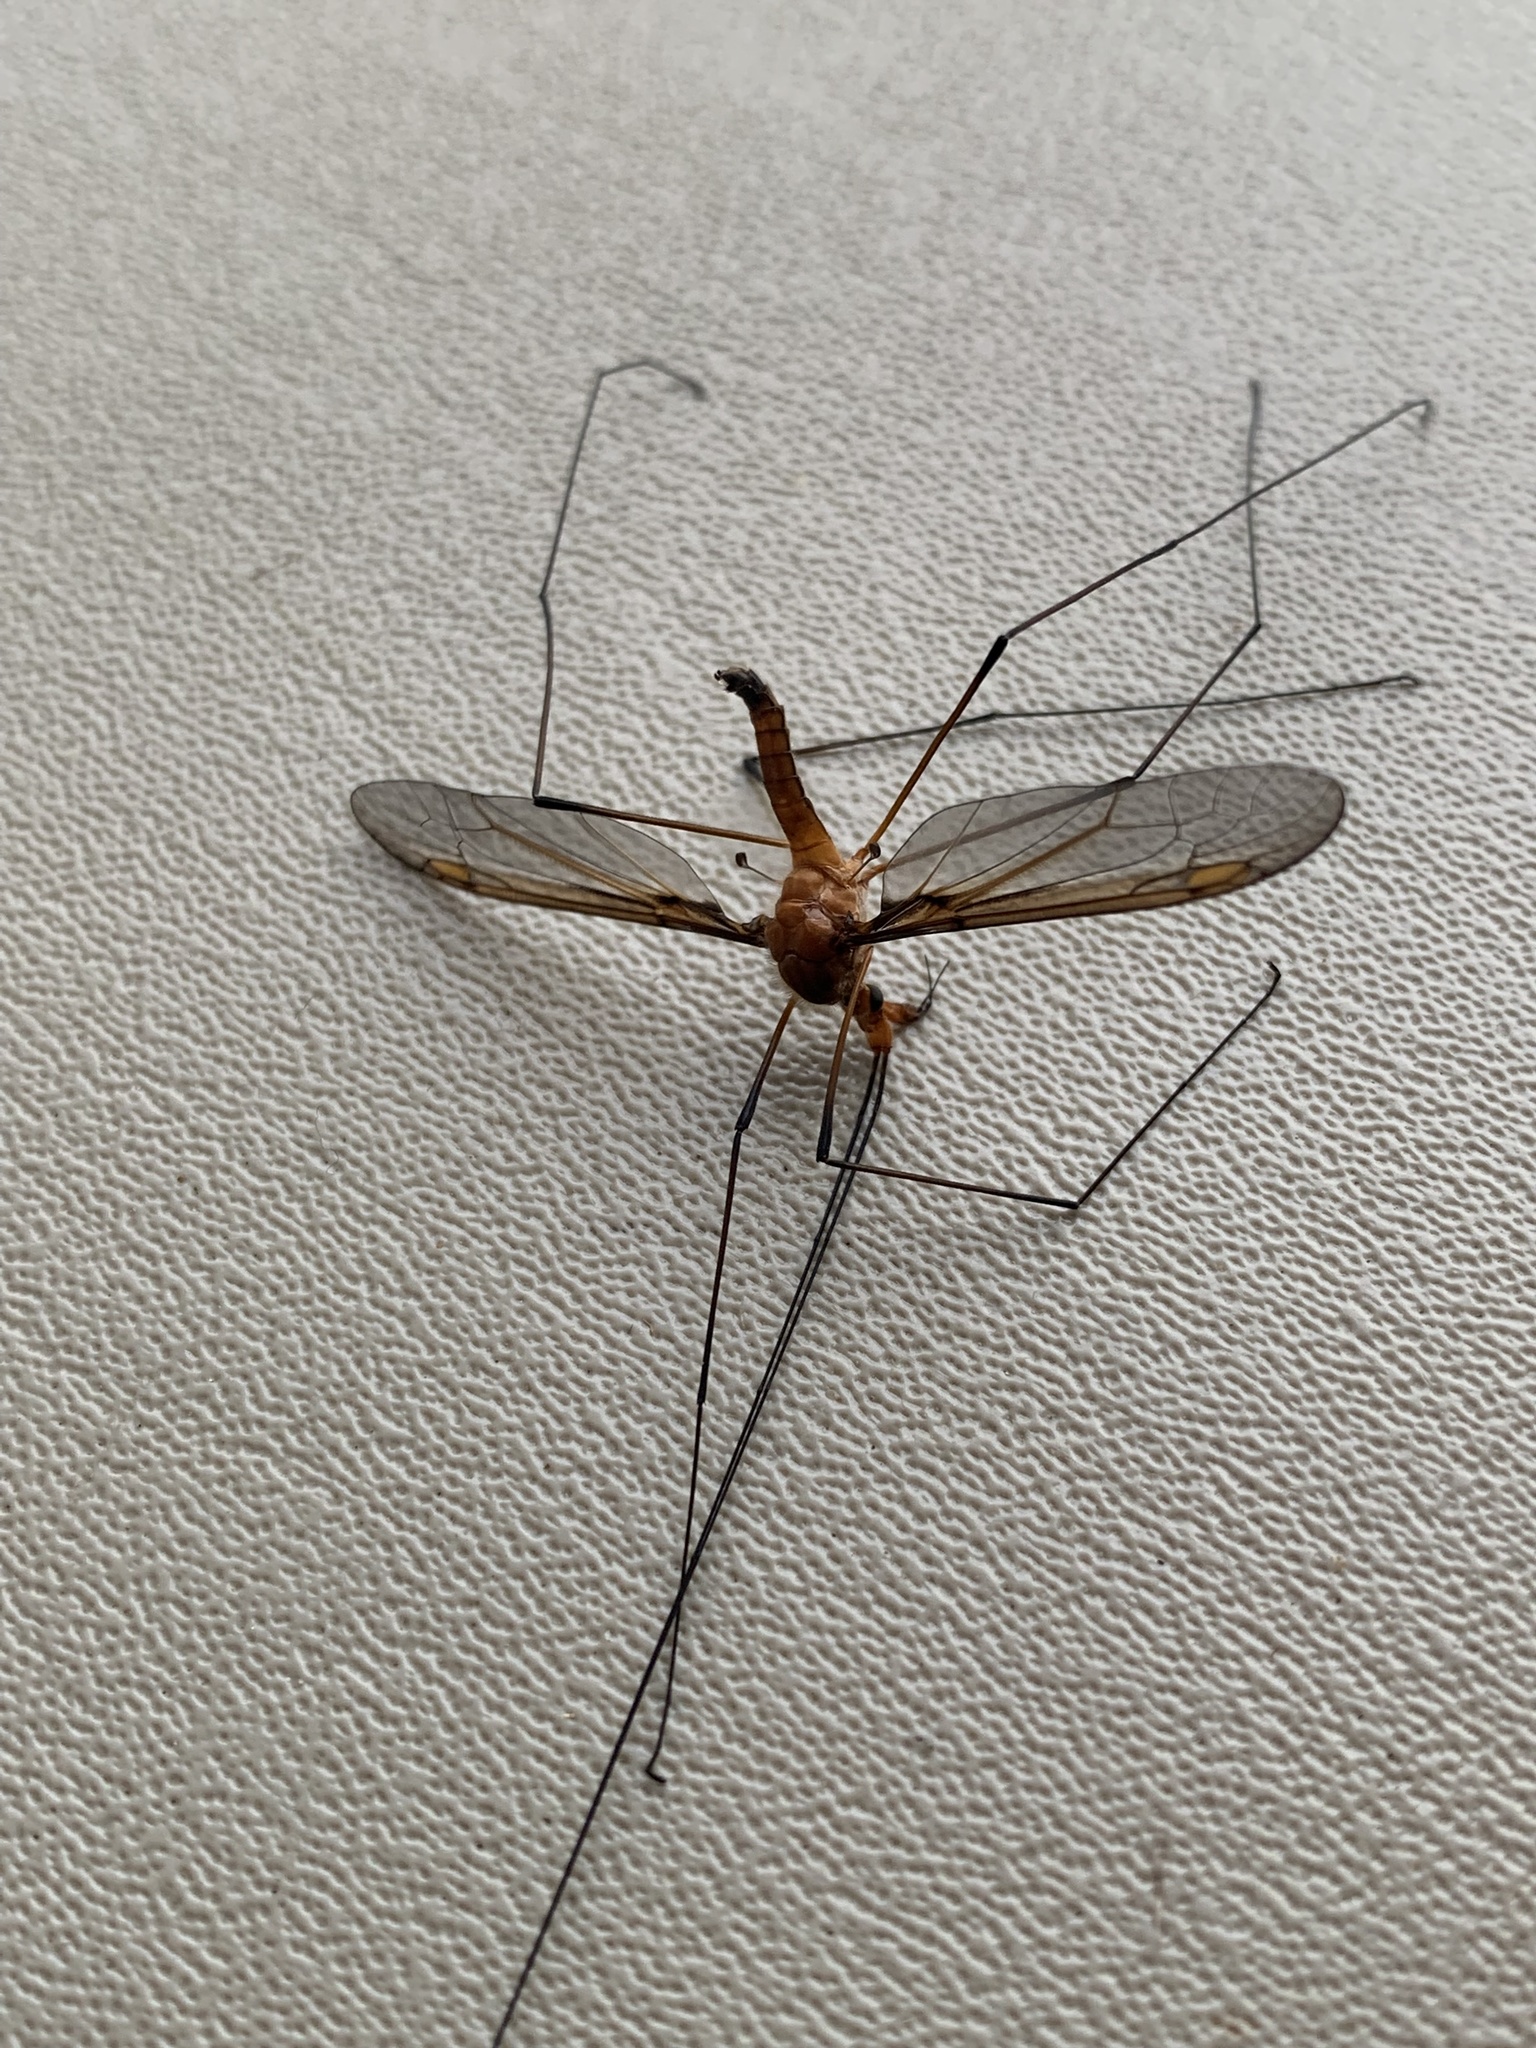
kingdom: Animalia
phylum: Arthropoda
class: Insecta
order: Diptera
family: Tipulidae
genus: Leptotarsus
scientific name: Leptotarsus costalis
